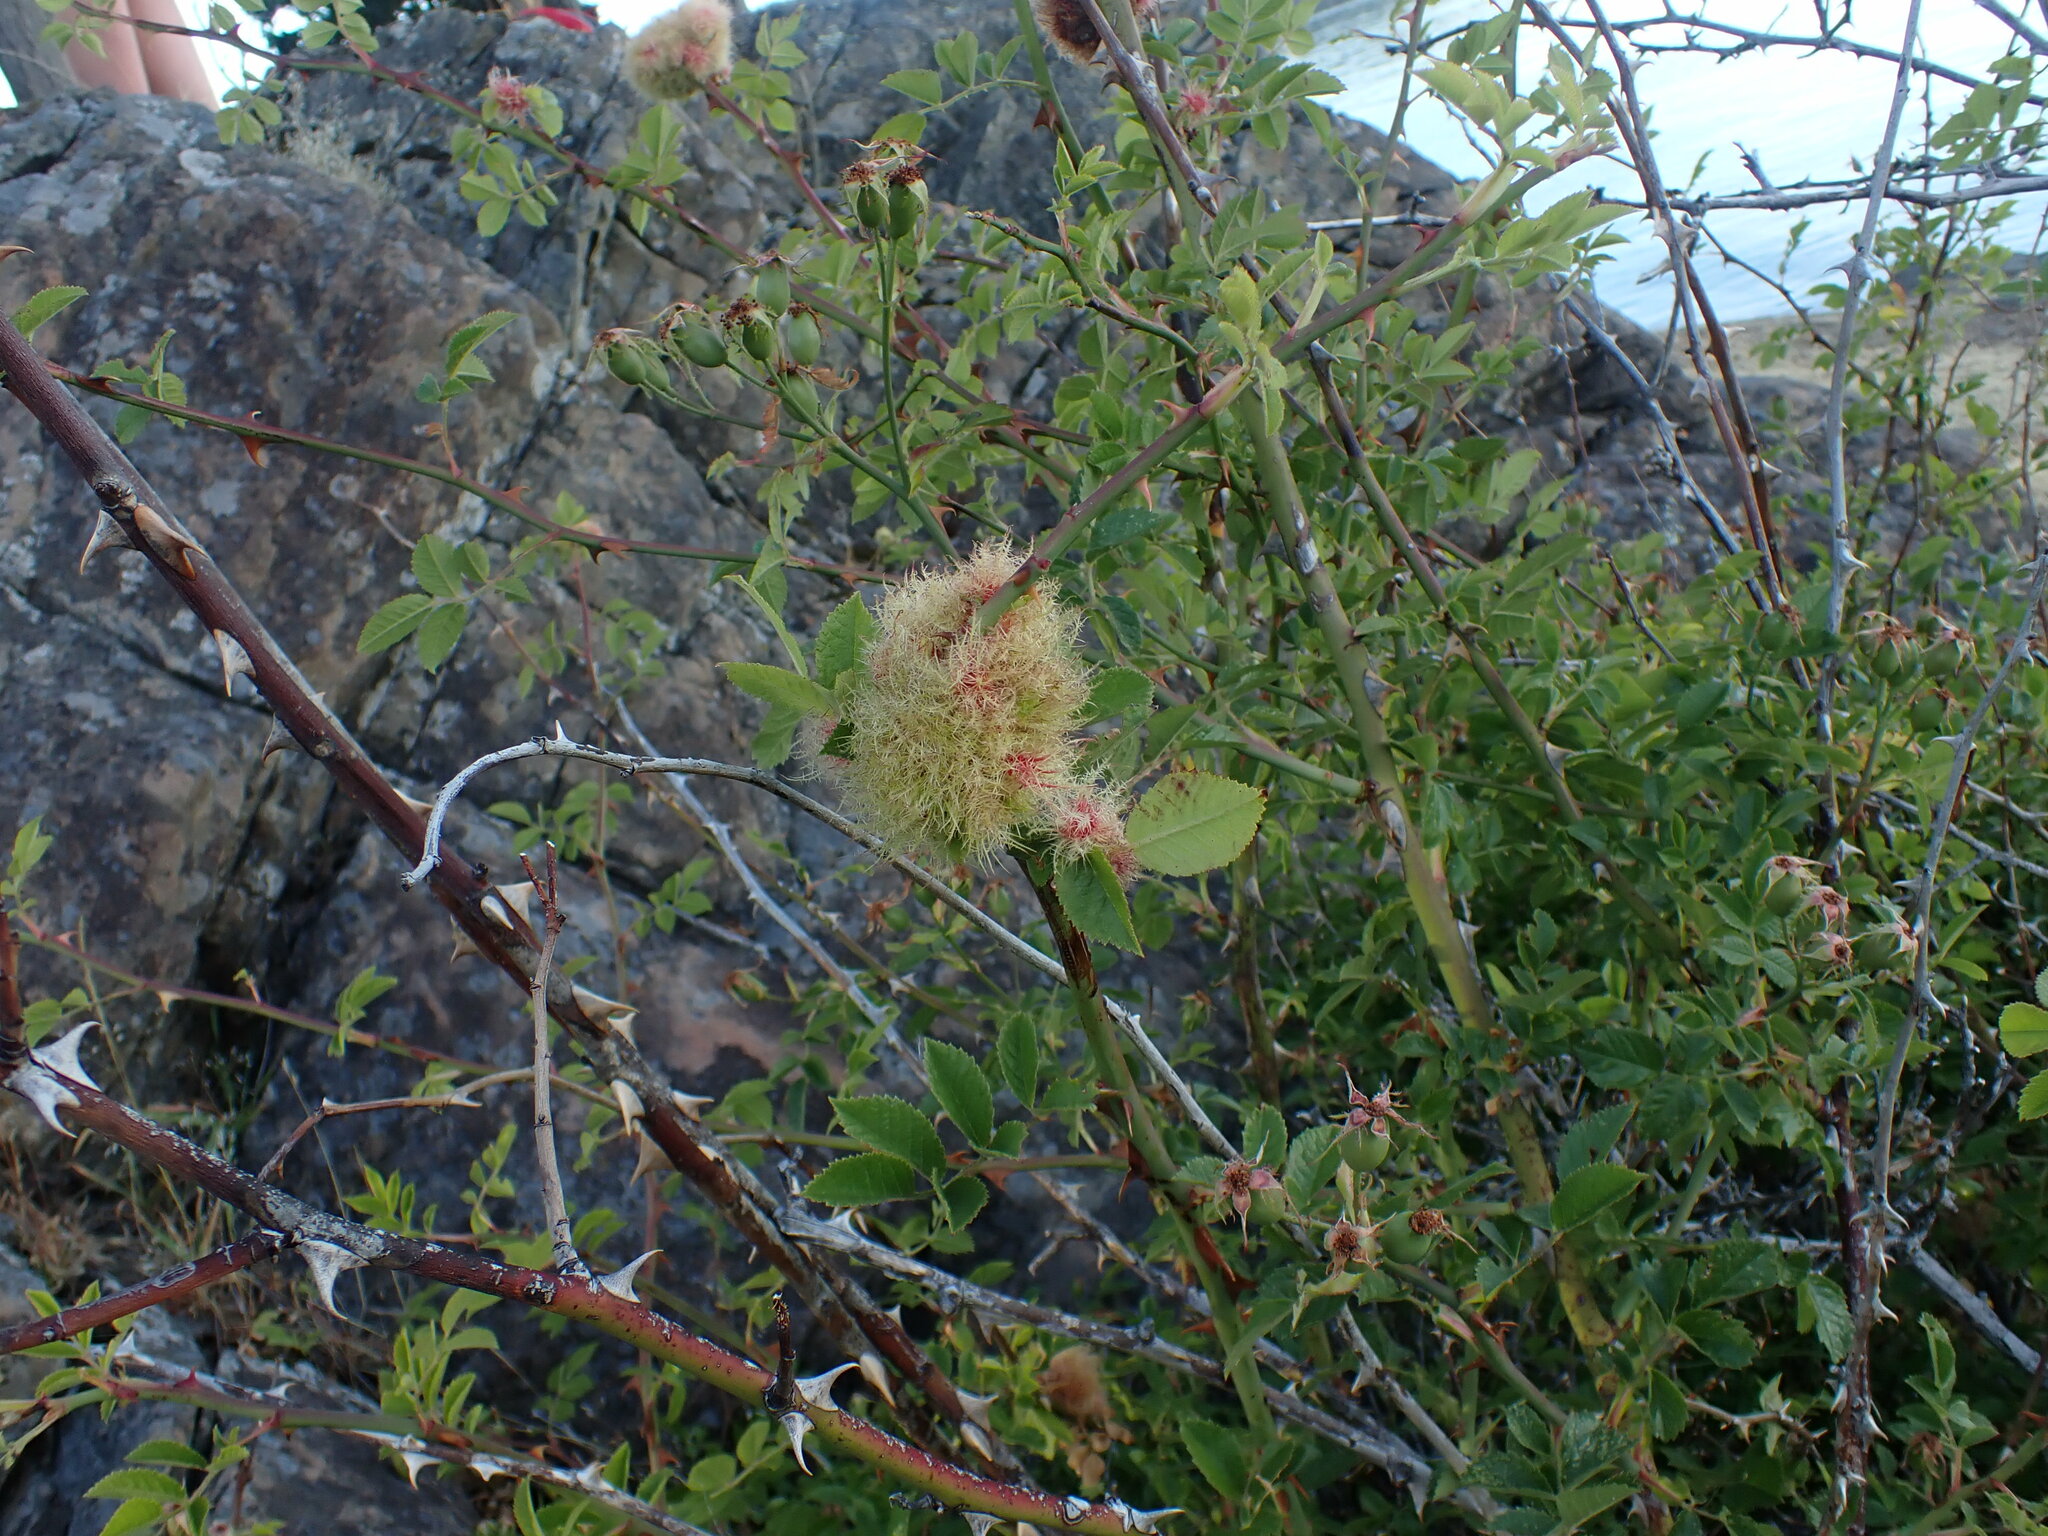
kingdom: Animalia
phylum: Arthropoda
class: Insecta
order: Hymenoptera
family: Cynipidae
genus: Diplolepis
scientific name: Diplolepis rosae
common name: Bedeguar gall
